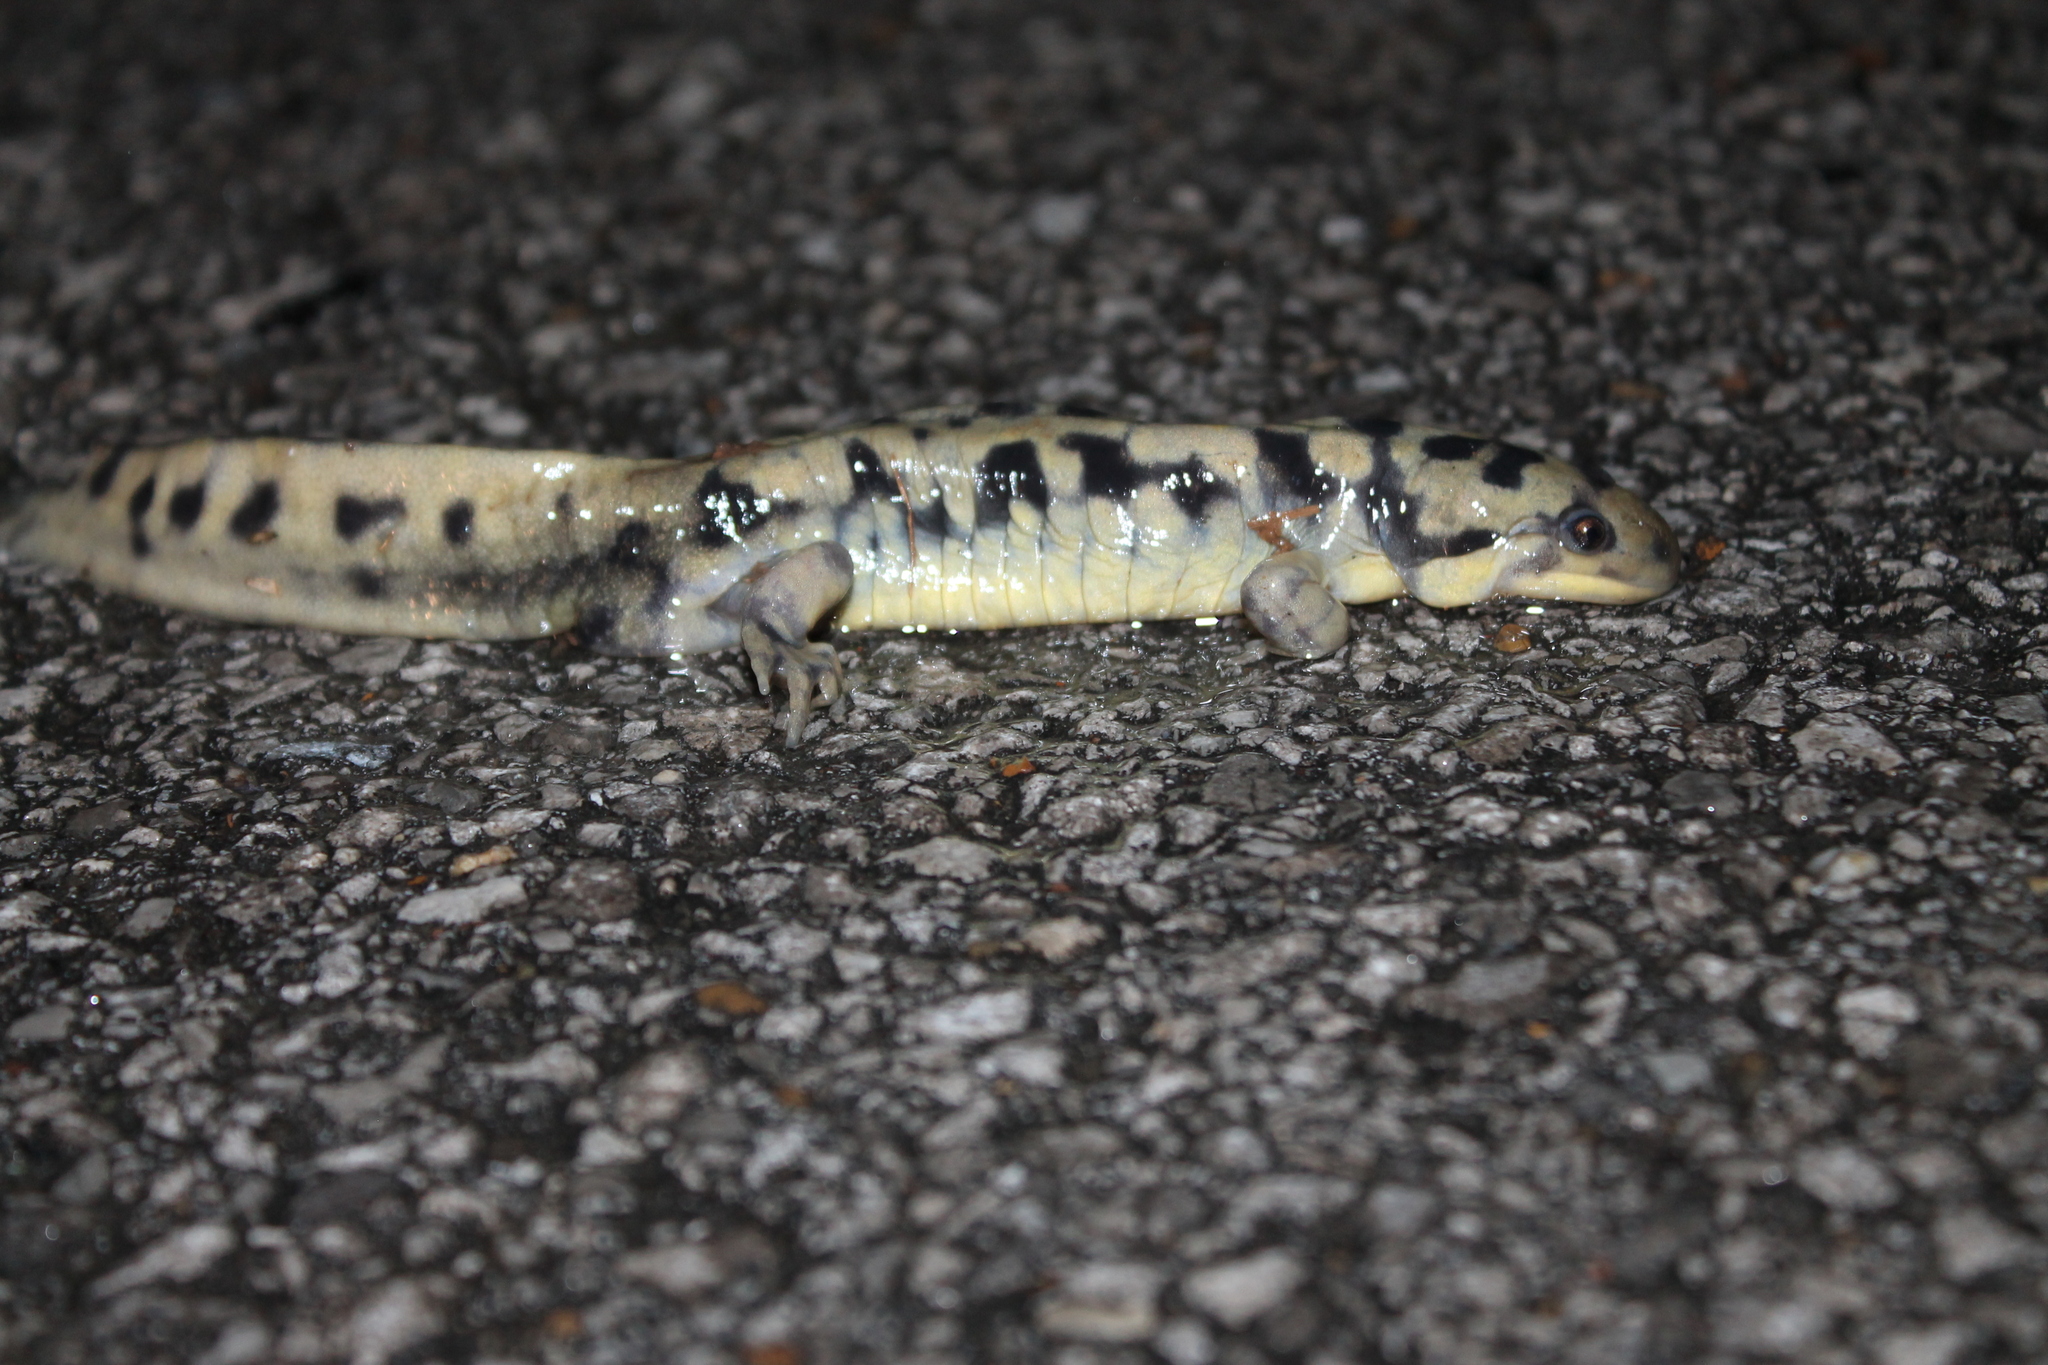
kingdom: Animalia
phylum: Chordata
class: Amphibia
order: Caudata
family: Ambystomatidae
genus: Ambystoma
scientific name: Ambystoma tigrinum
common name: Tiger salamander
